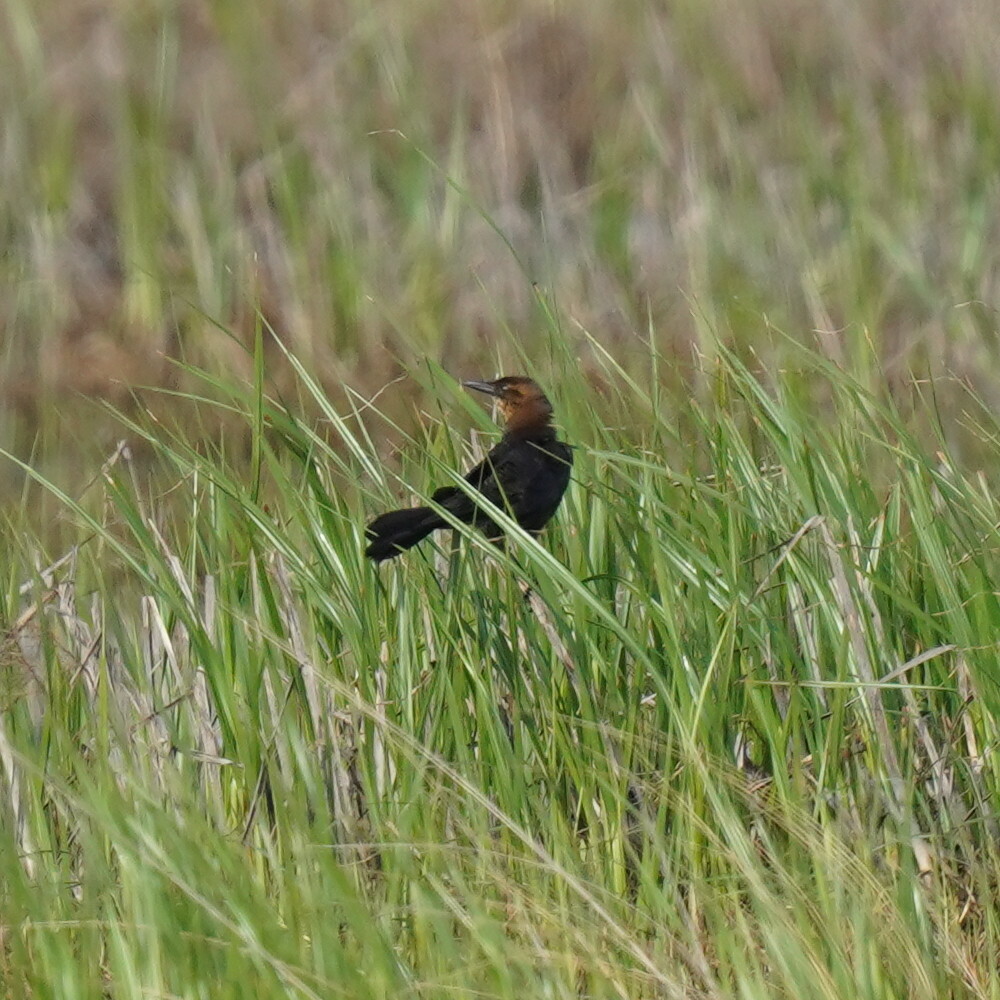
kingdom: Animalia
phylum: Chordata
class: Aves
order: Passeriformes
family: Icteridae
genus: Quiscalus
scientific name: Quiscalus major
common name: Boat-tailed grackle
